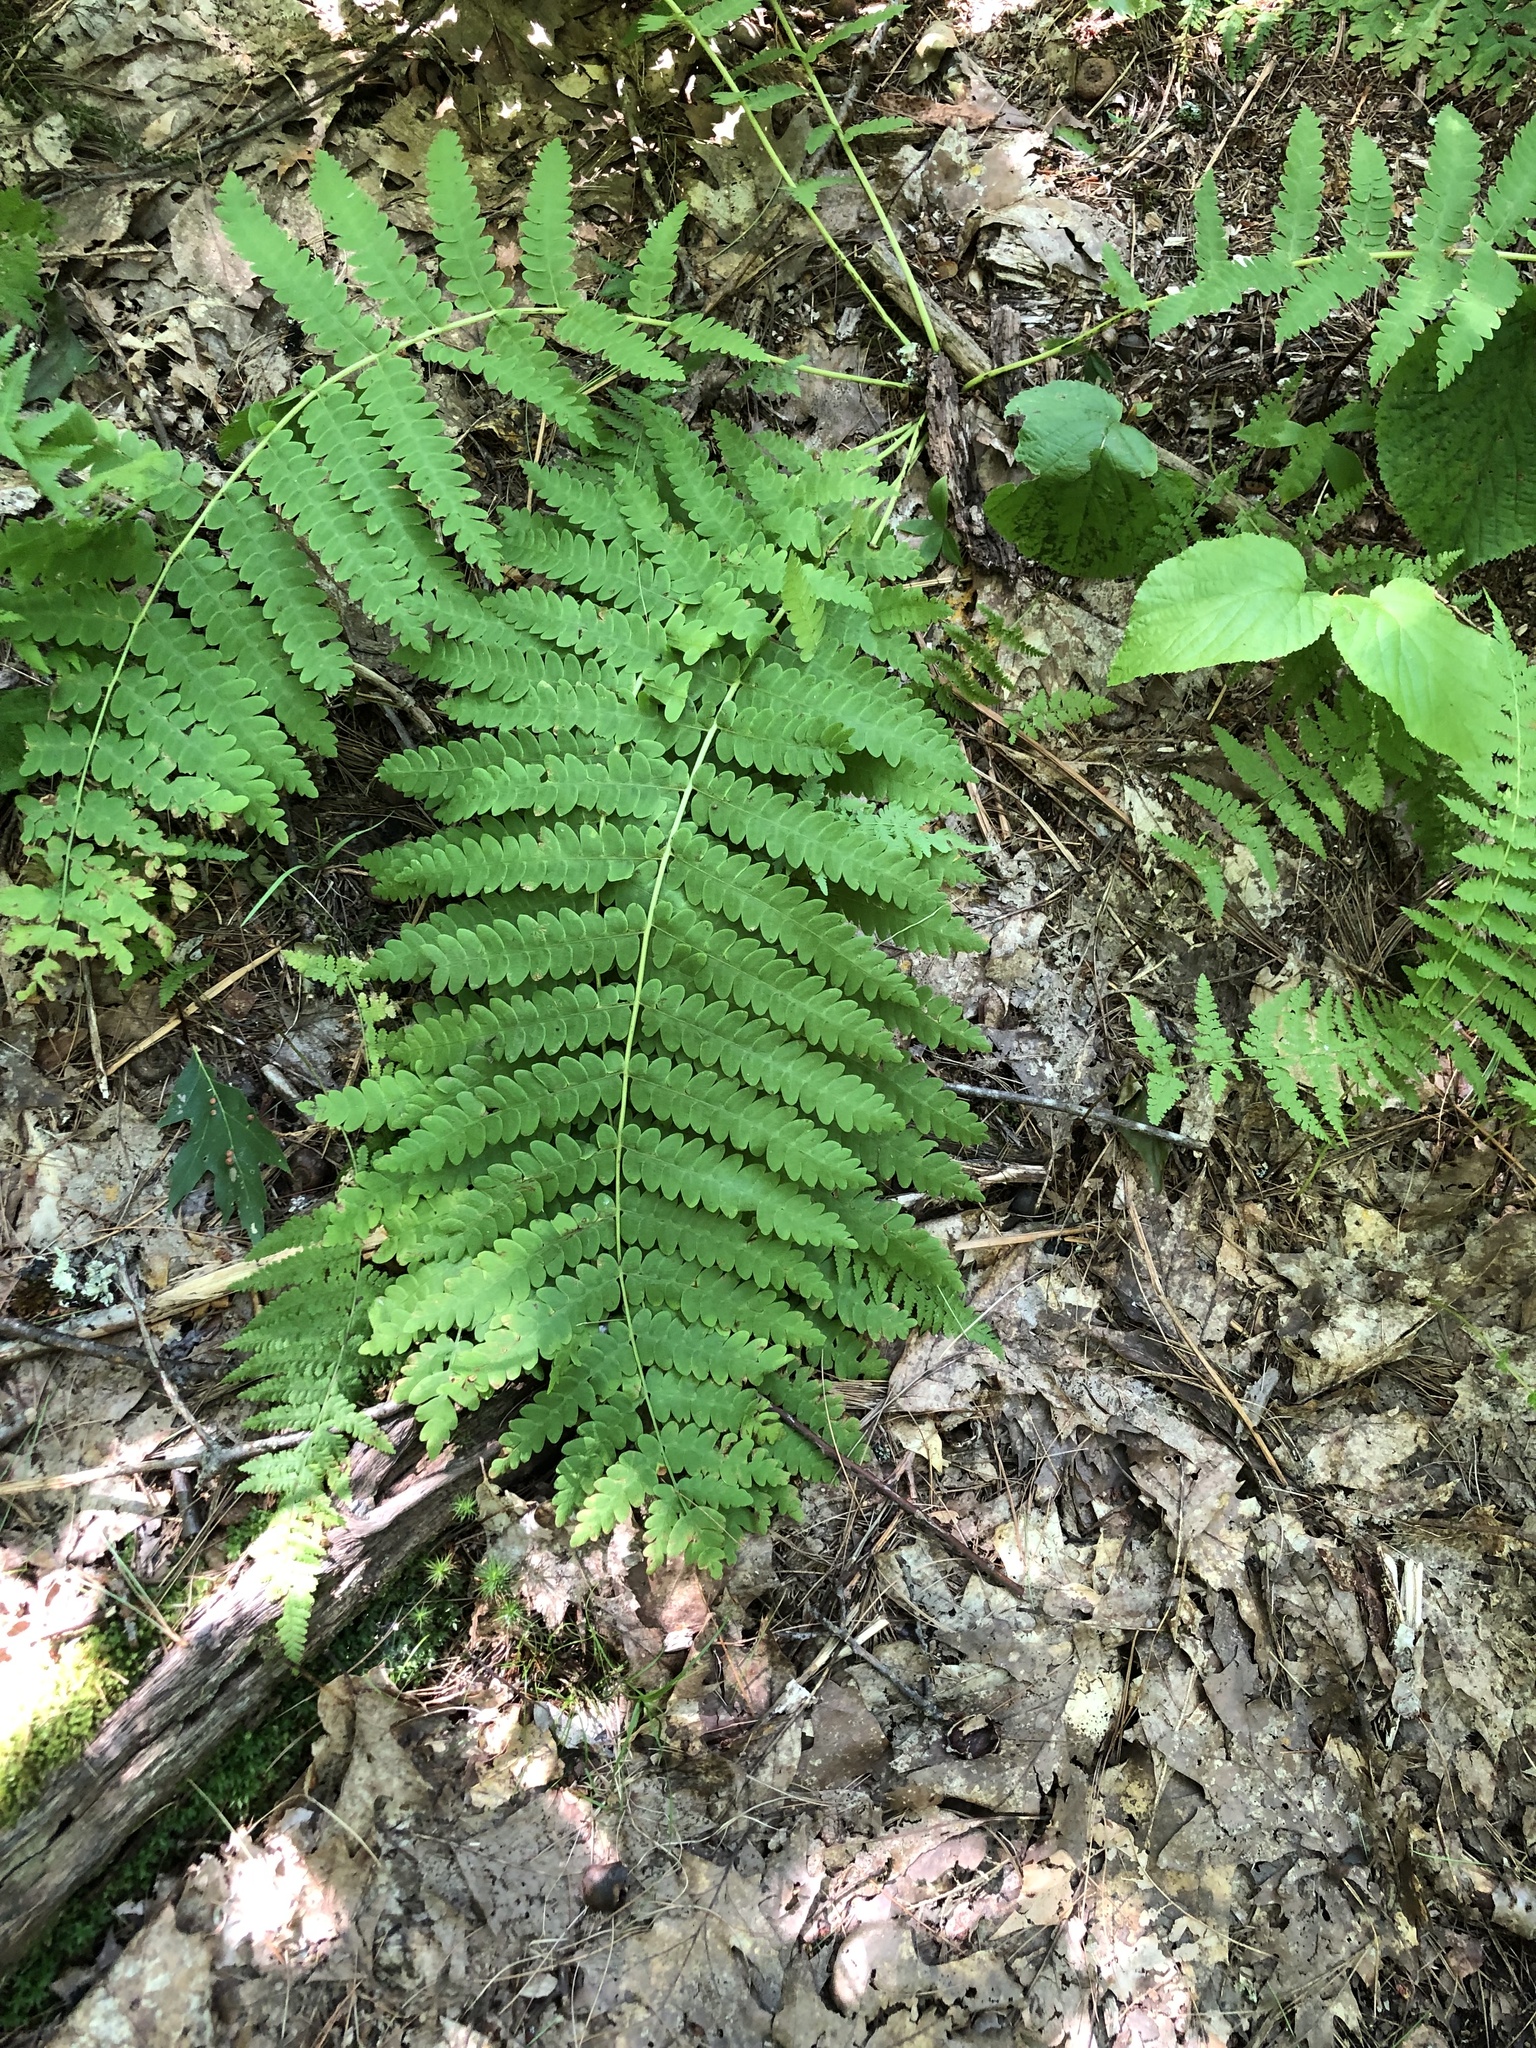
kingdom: Plantae
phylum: Tracheophyta
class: Polypodiopsida
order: Osmundales
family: Osmundaceae
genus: Claytosmunda
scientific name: Claytosmunda claytoniana
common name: Clayton's fern
